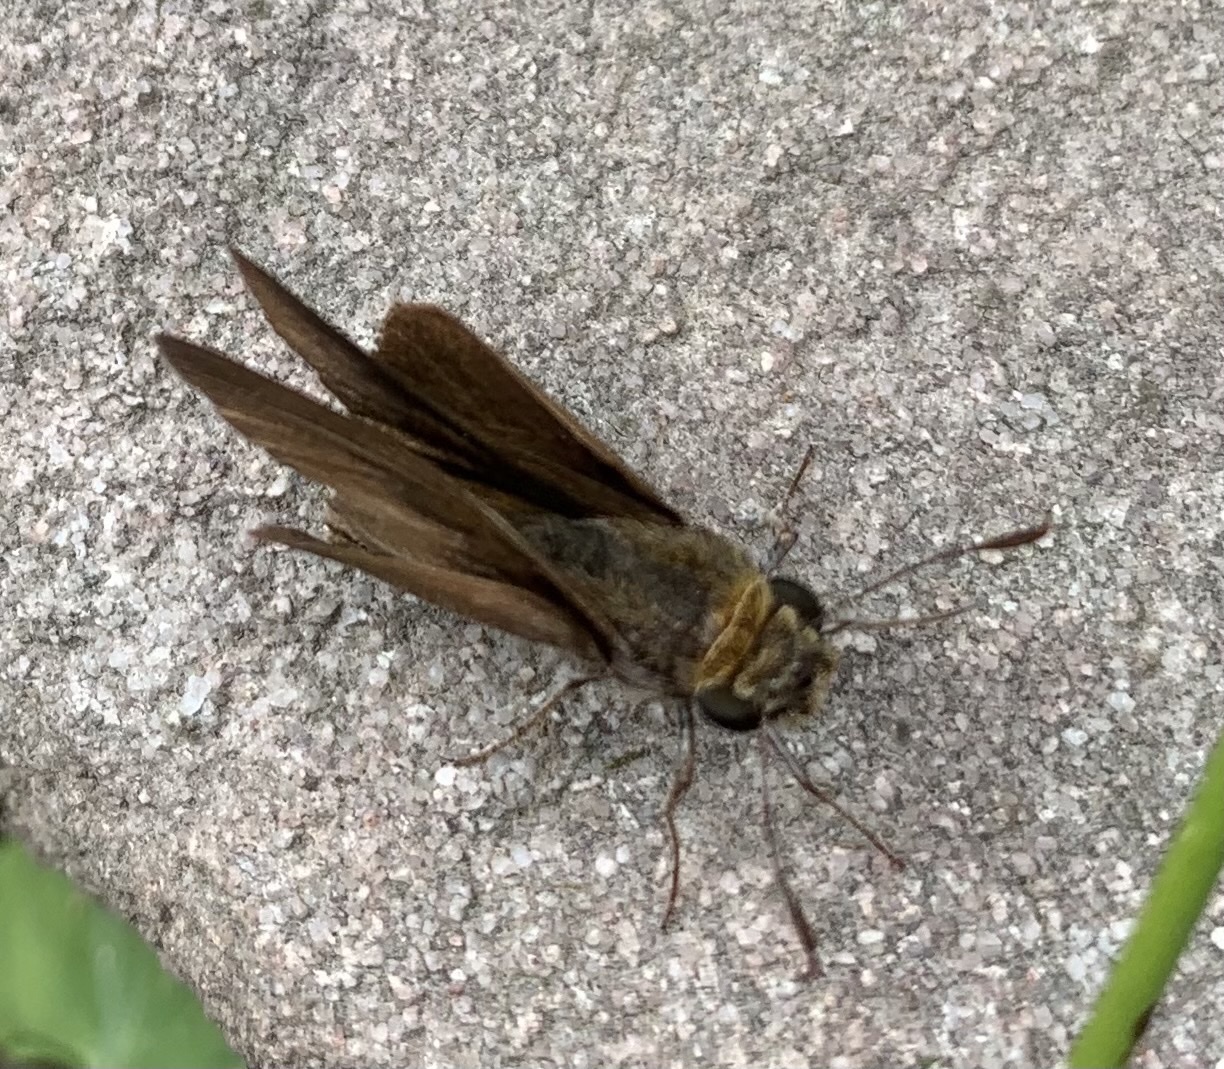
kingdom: Animalia
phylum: Arthropoda
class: Insecta
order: Lepidoptera
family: Hesperiidae
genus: Euphyes
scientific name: Euphyes vestris
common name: Dun skipper
